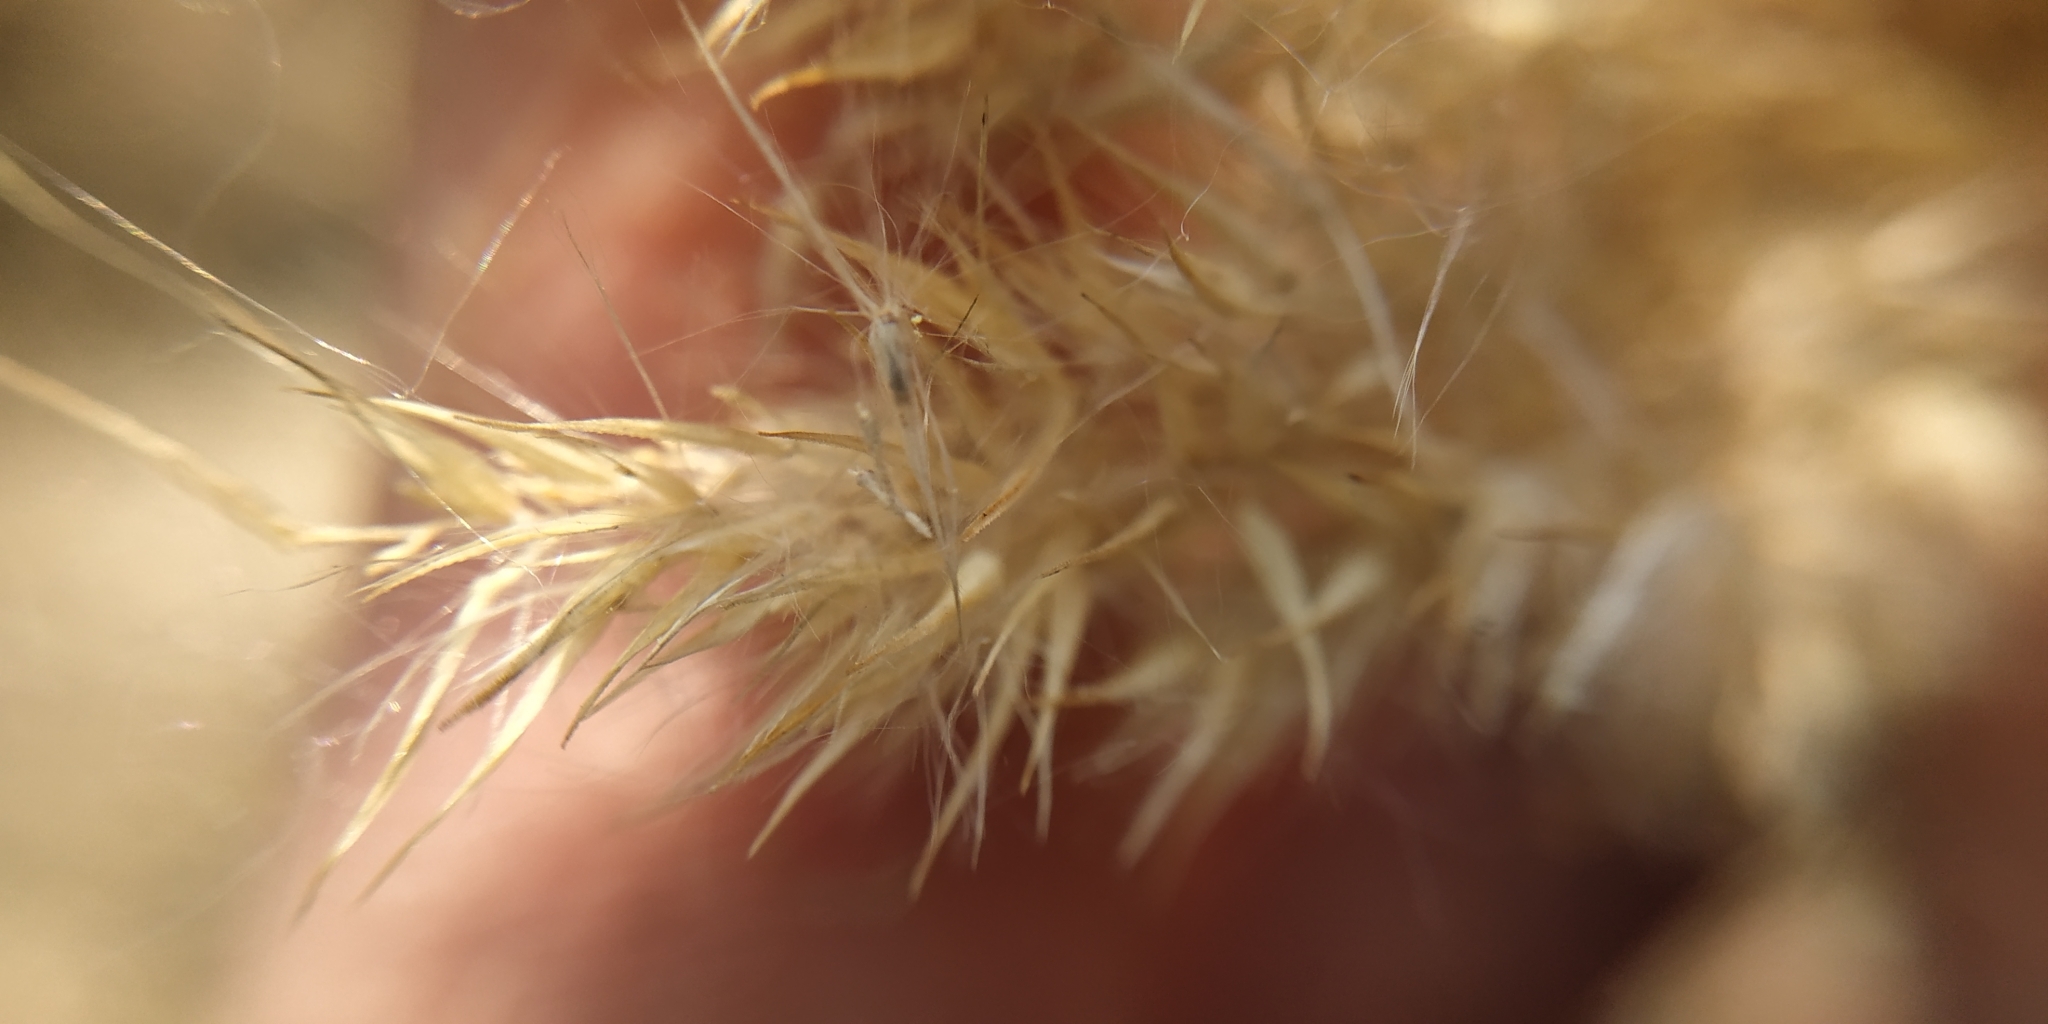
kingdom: Plantae
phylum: Tracheophyta
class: Liliopsida
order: Poales
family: Poaceae
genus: Calamagrostis
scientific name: Calamagrostis epigejos
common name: Wood small-reed
